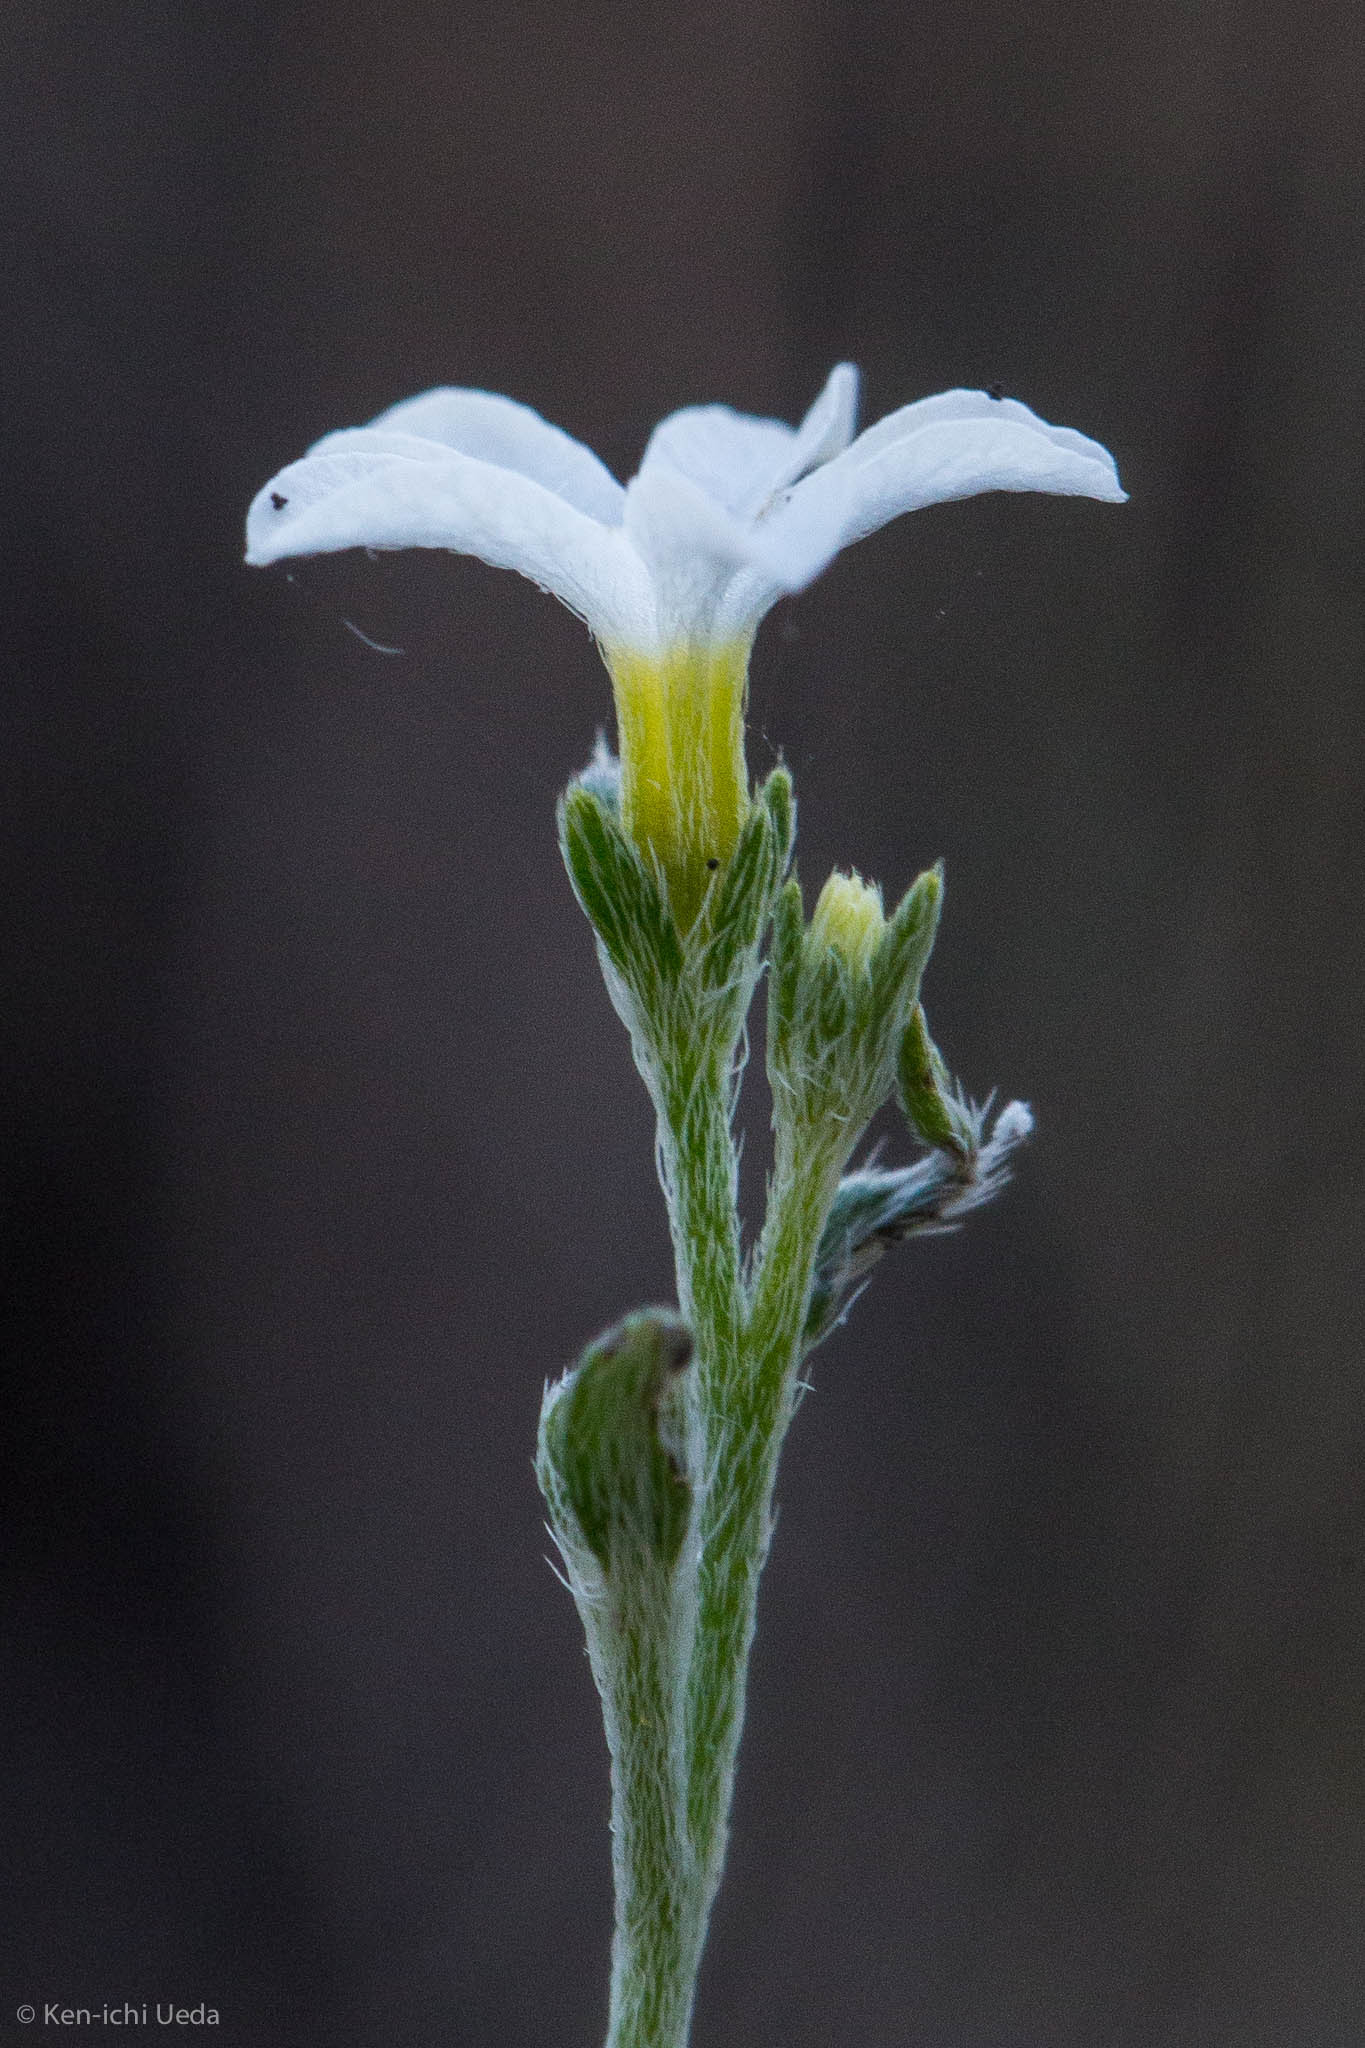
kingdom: Plantae
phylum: Tracheophyta
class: Magnoliopsida
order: Boraginales
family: Heliotropiaceae
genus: Euploca
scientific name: Euploca tenella
